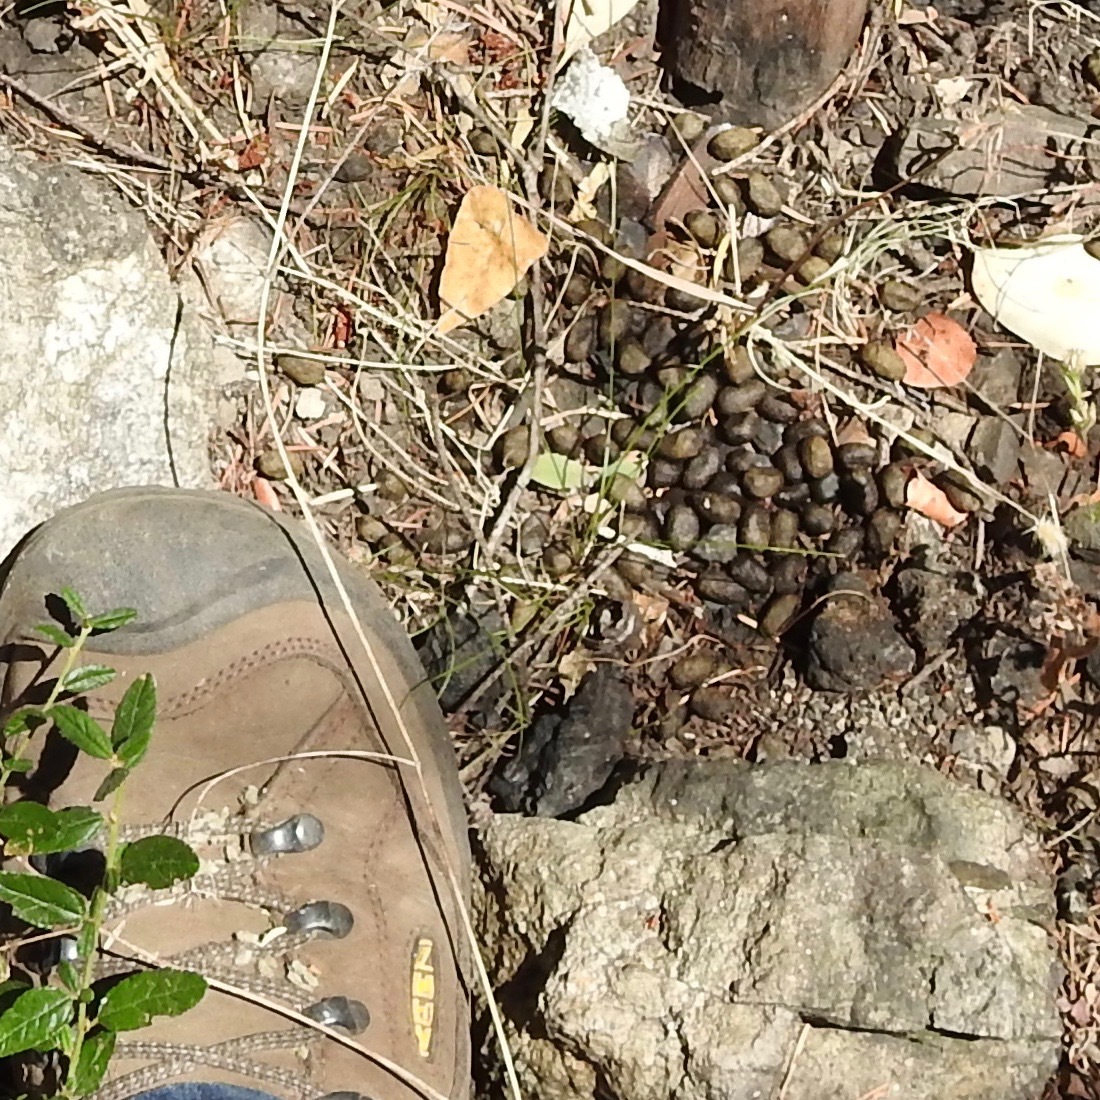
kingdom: Animalia
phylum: Chordata
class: Mammalia
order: Artiodactyla
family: Cervidae
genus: Odocoileus
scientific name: Odocoileus hemionus
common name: Mule deer
